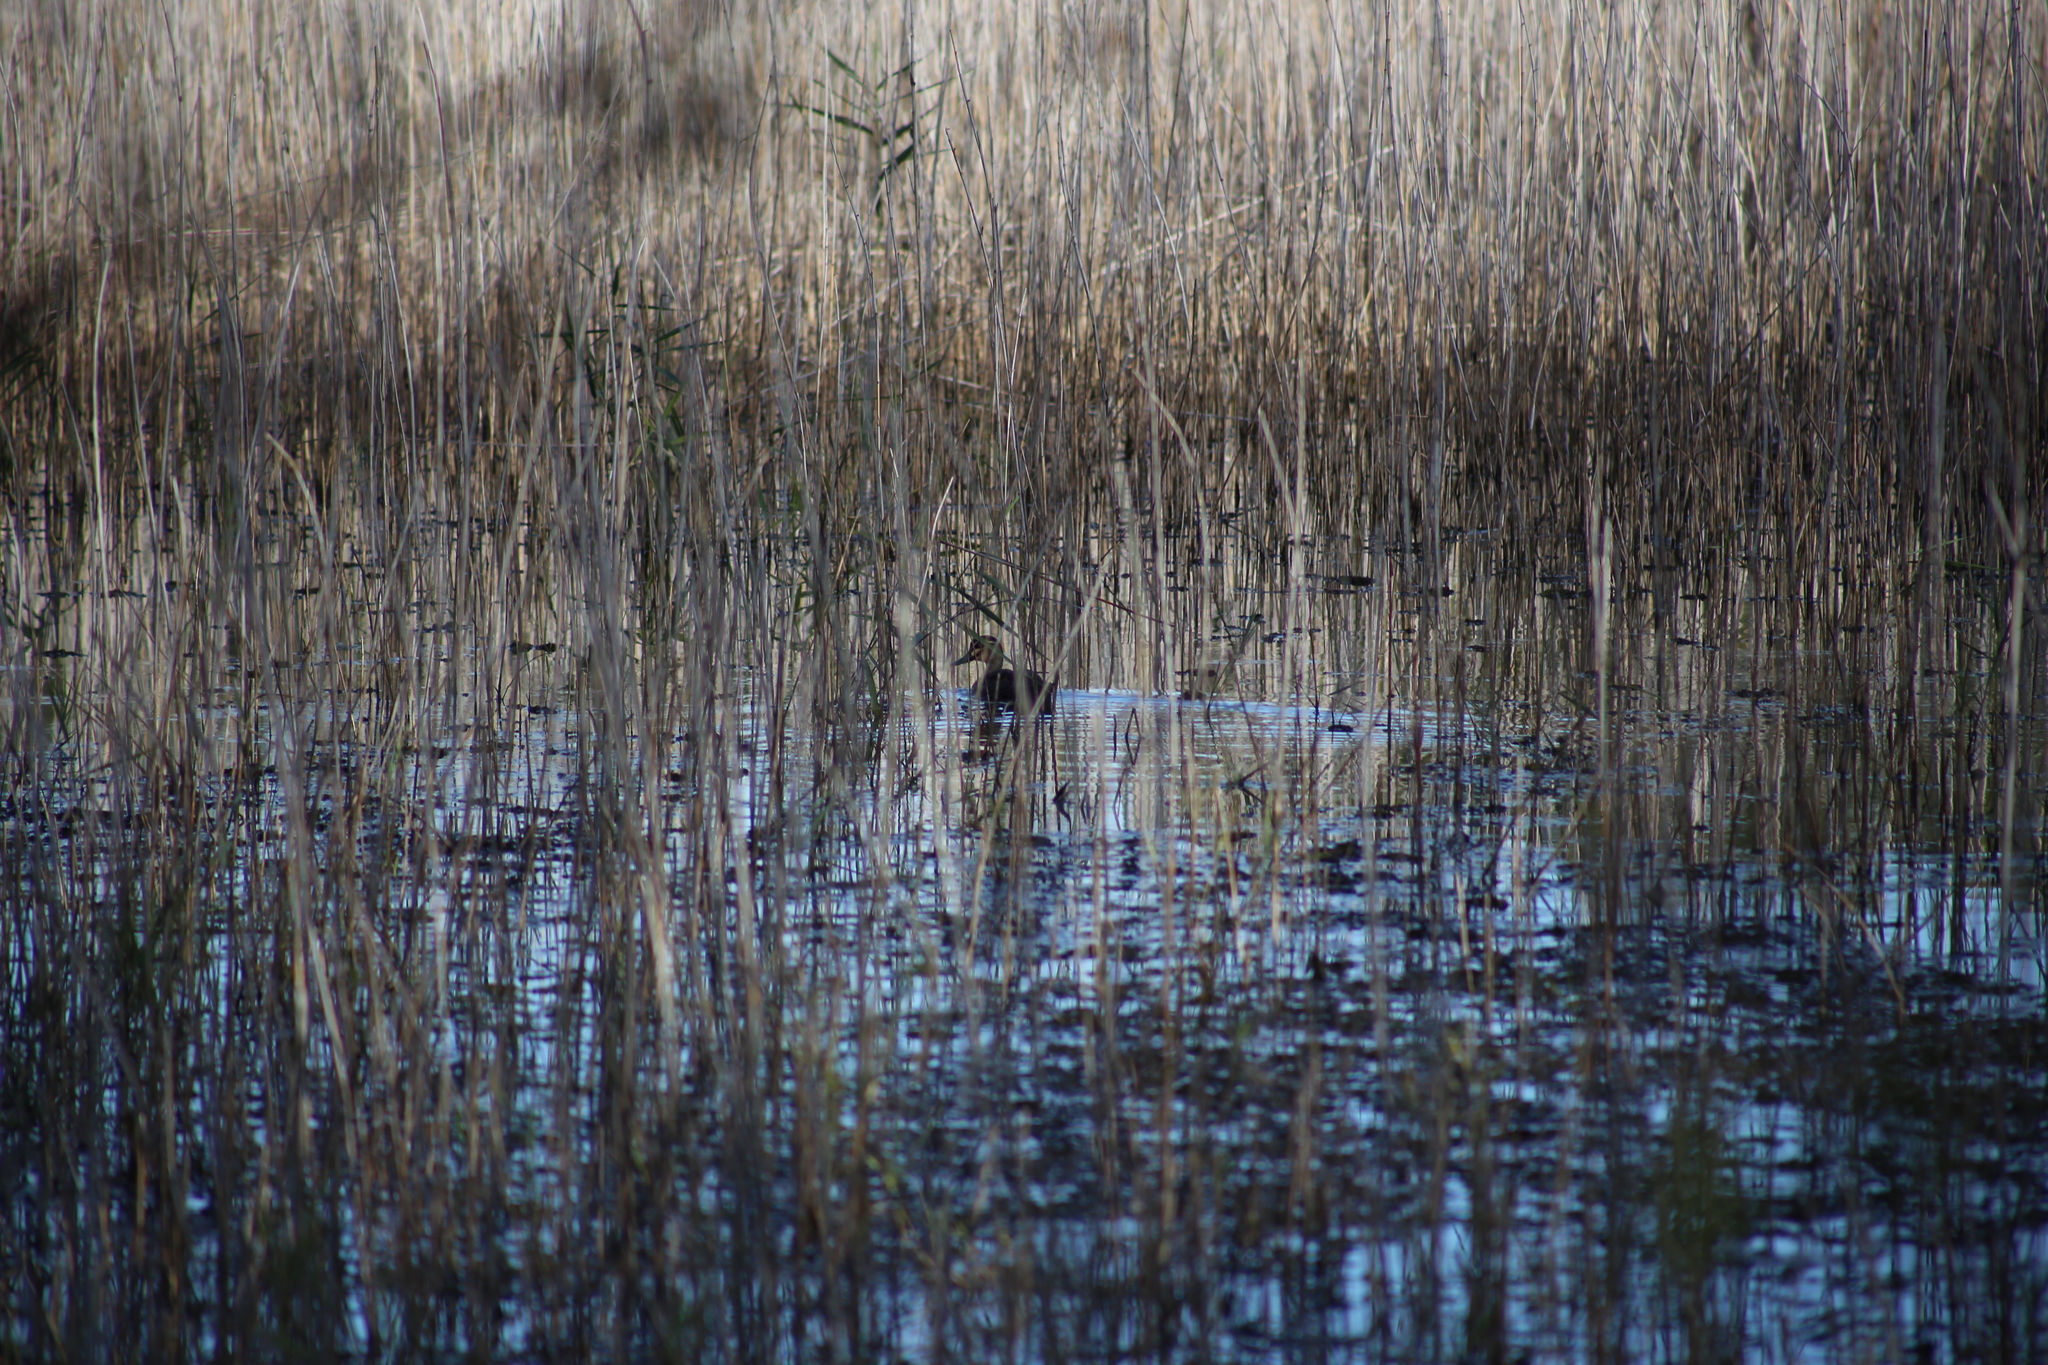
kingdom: Animalia
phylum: Chordata
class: Aves
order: Anseriformes
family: Anatidae
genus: Anas
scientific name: Anas superciliosa
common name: Pacific black duck
